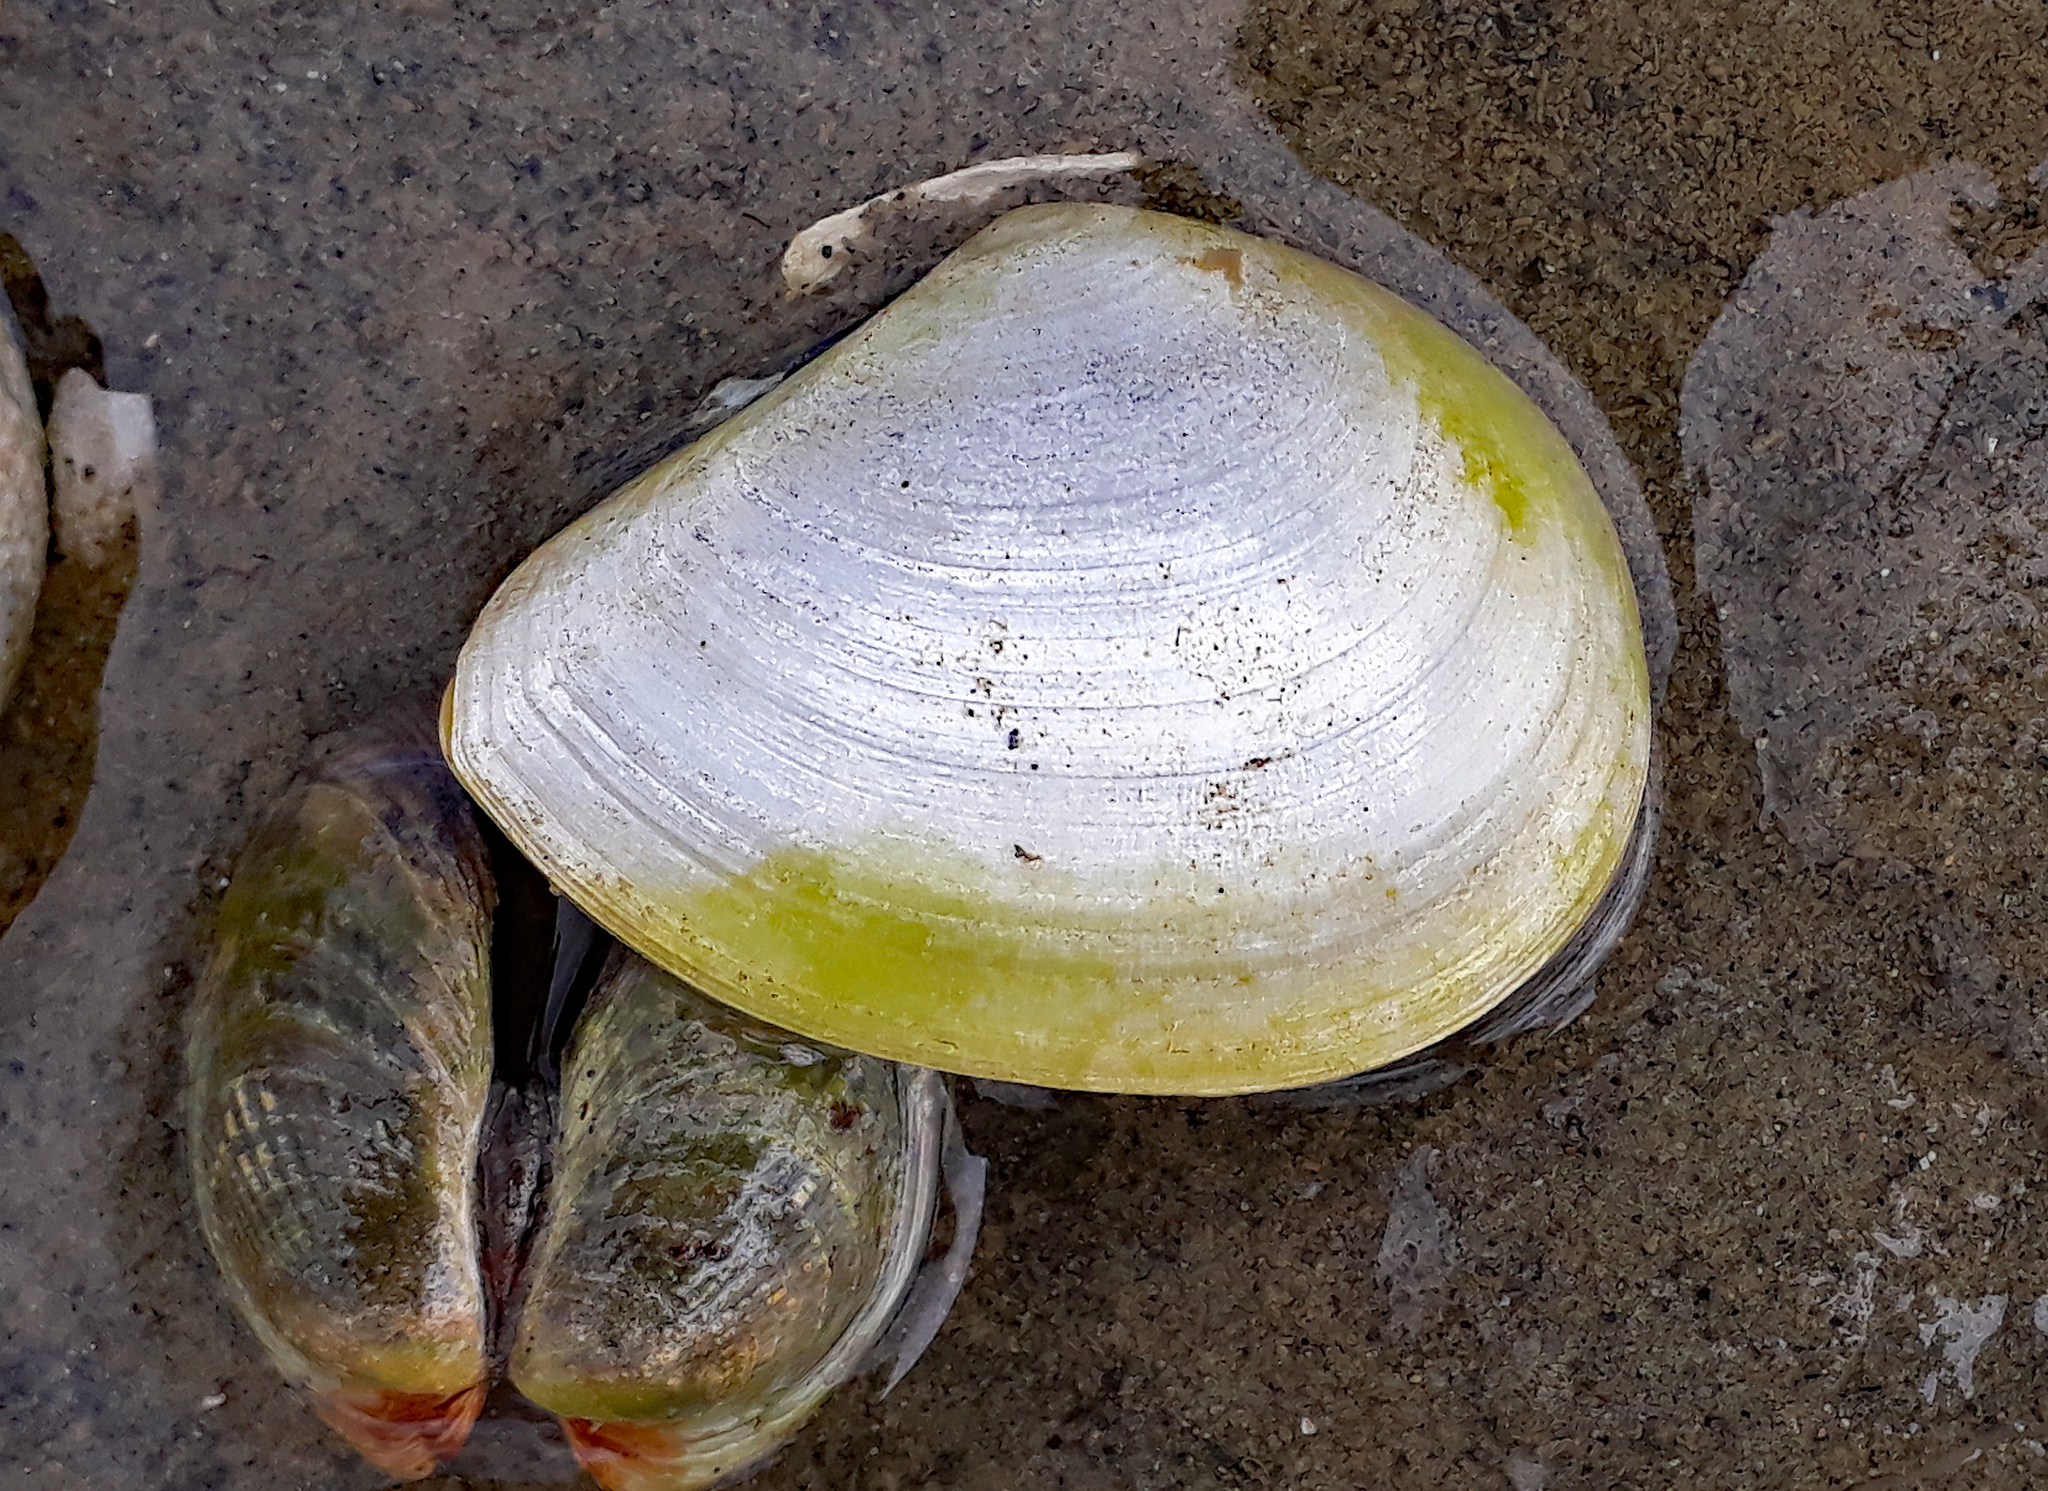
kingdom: Animalia
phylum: Mollusca
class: Bivalvia
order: Cardiida
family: Tellinidae
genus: Macomona
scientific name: Macomona liliana
